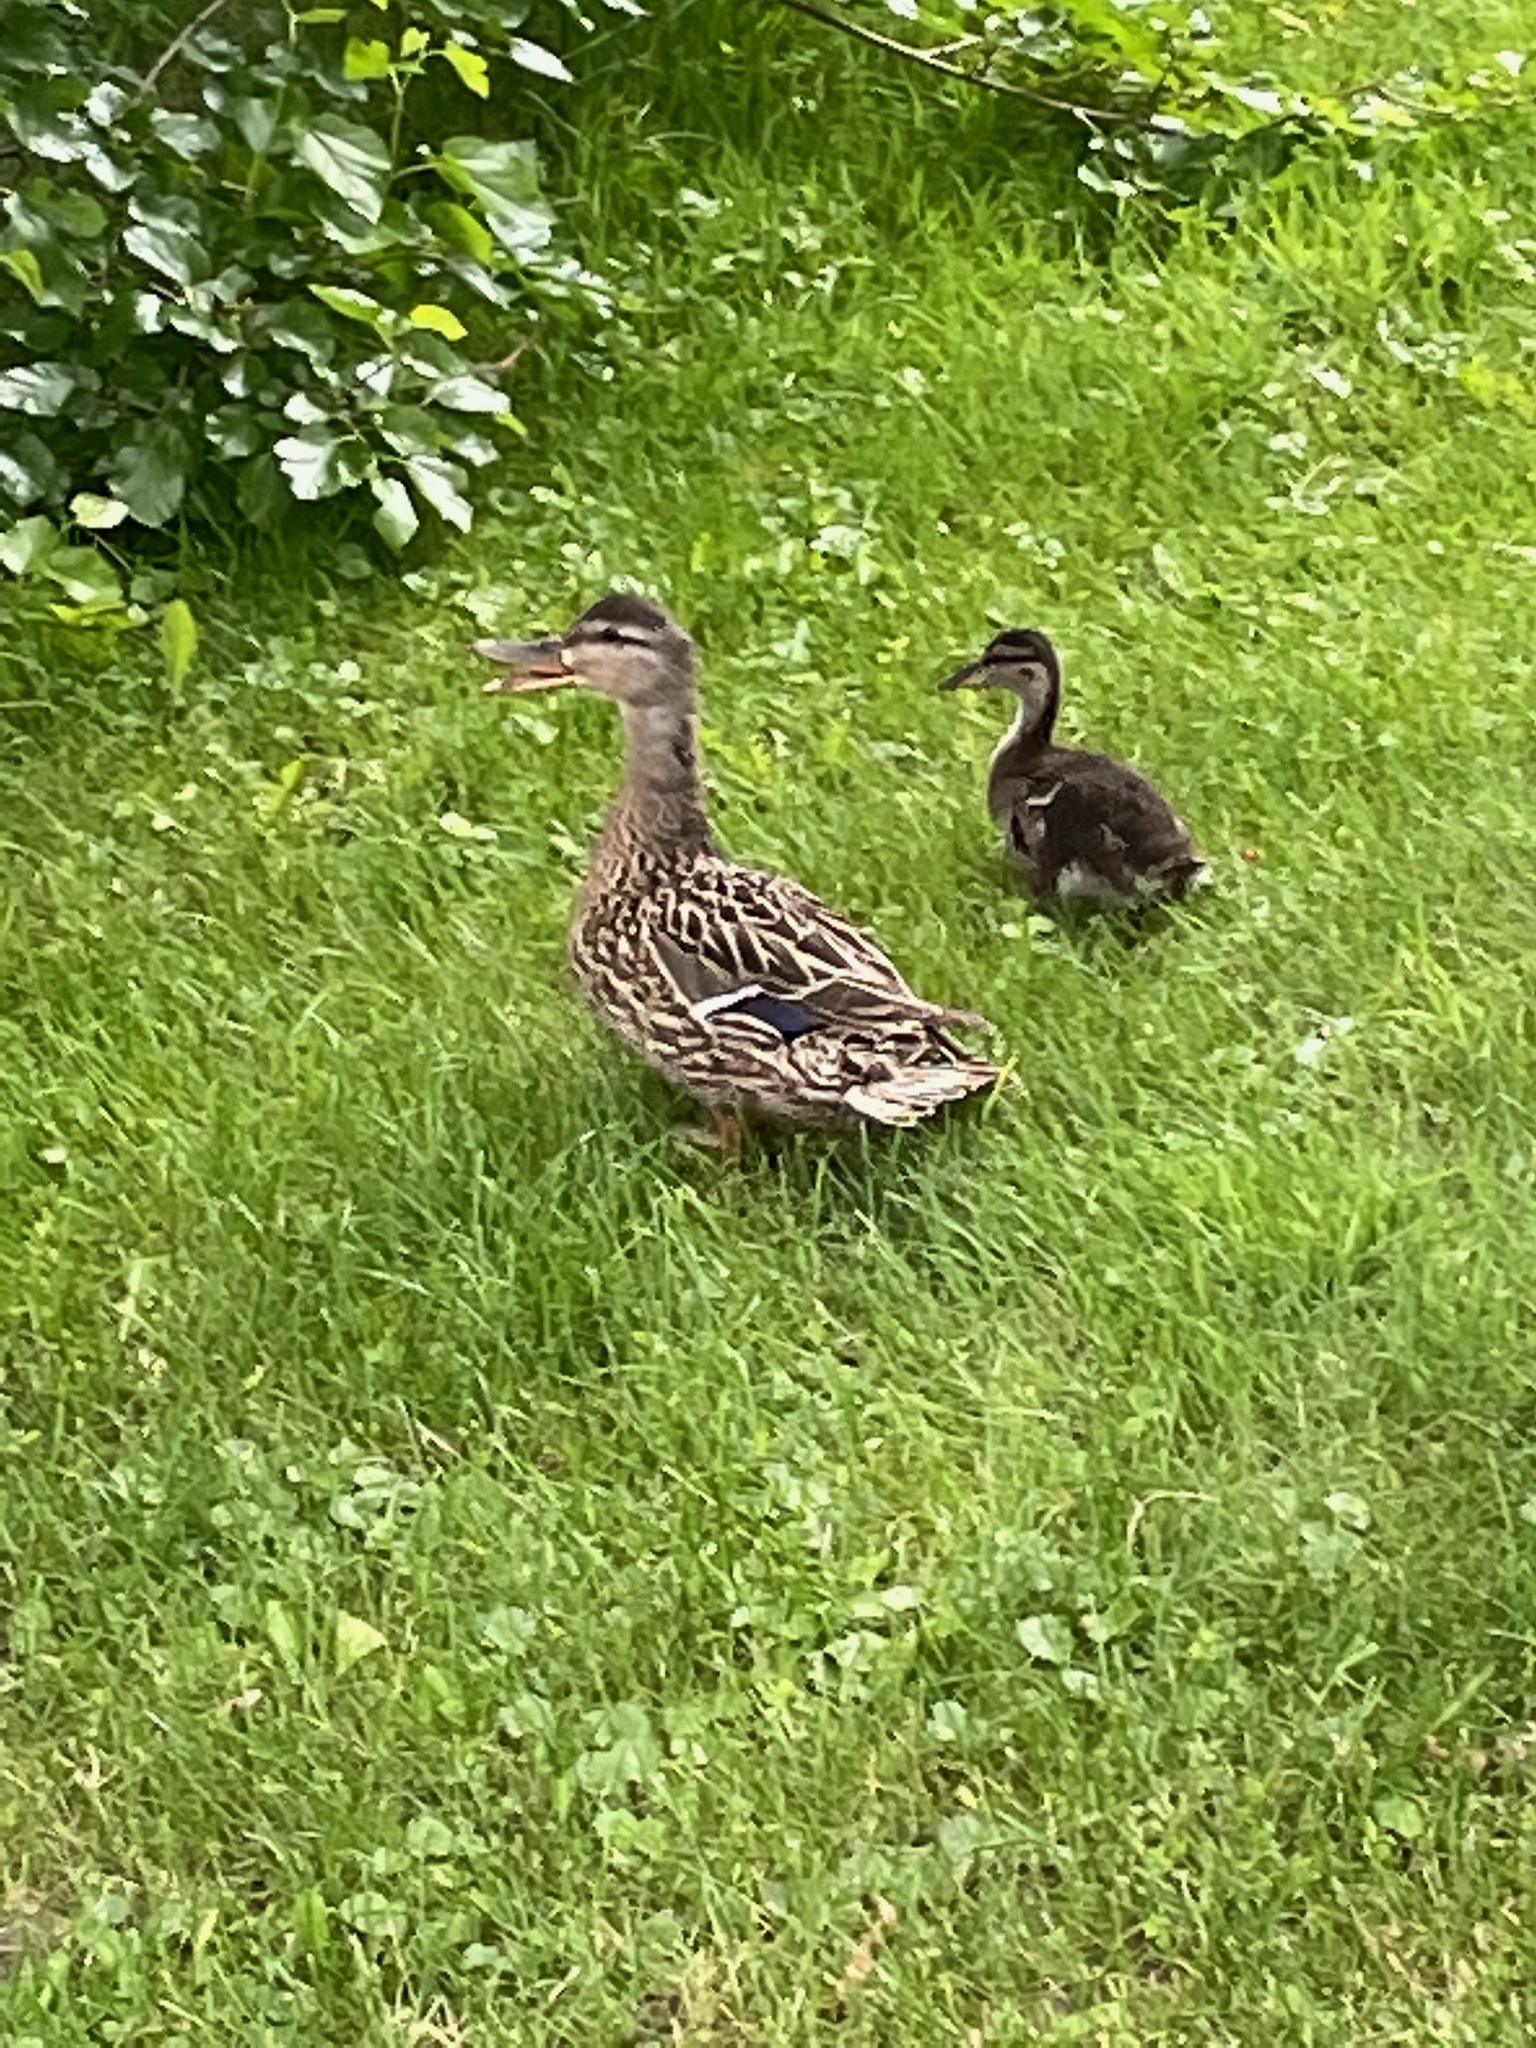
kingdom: Animalia
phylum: Chordata
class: Aves
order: Anseriformes
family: Anatidae
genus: Anas
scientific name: Anas platyrhynchos
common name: Mallard
